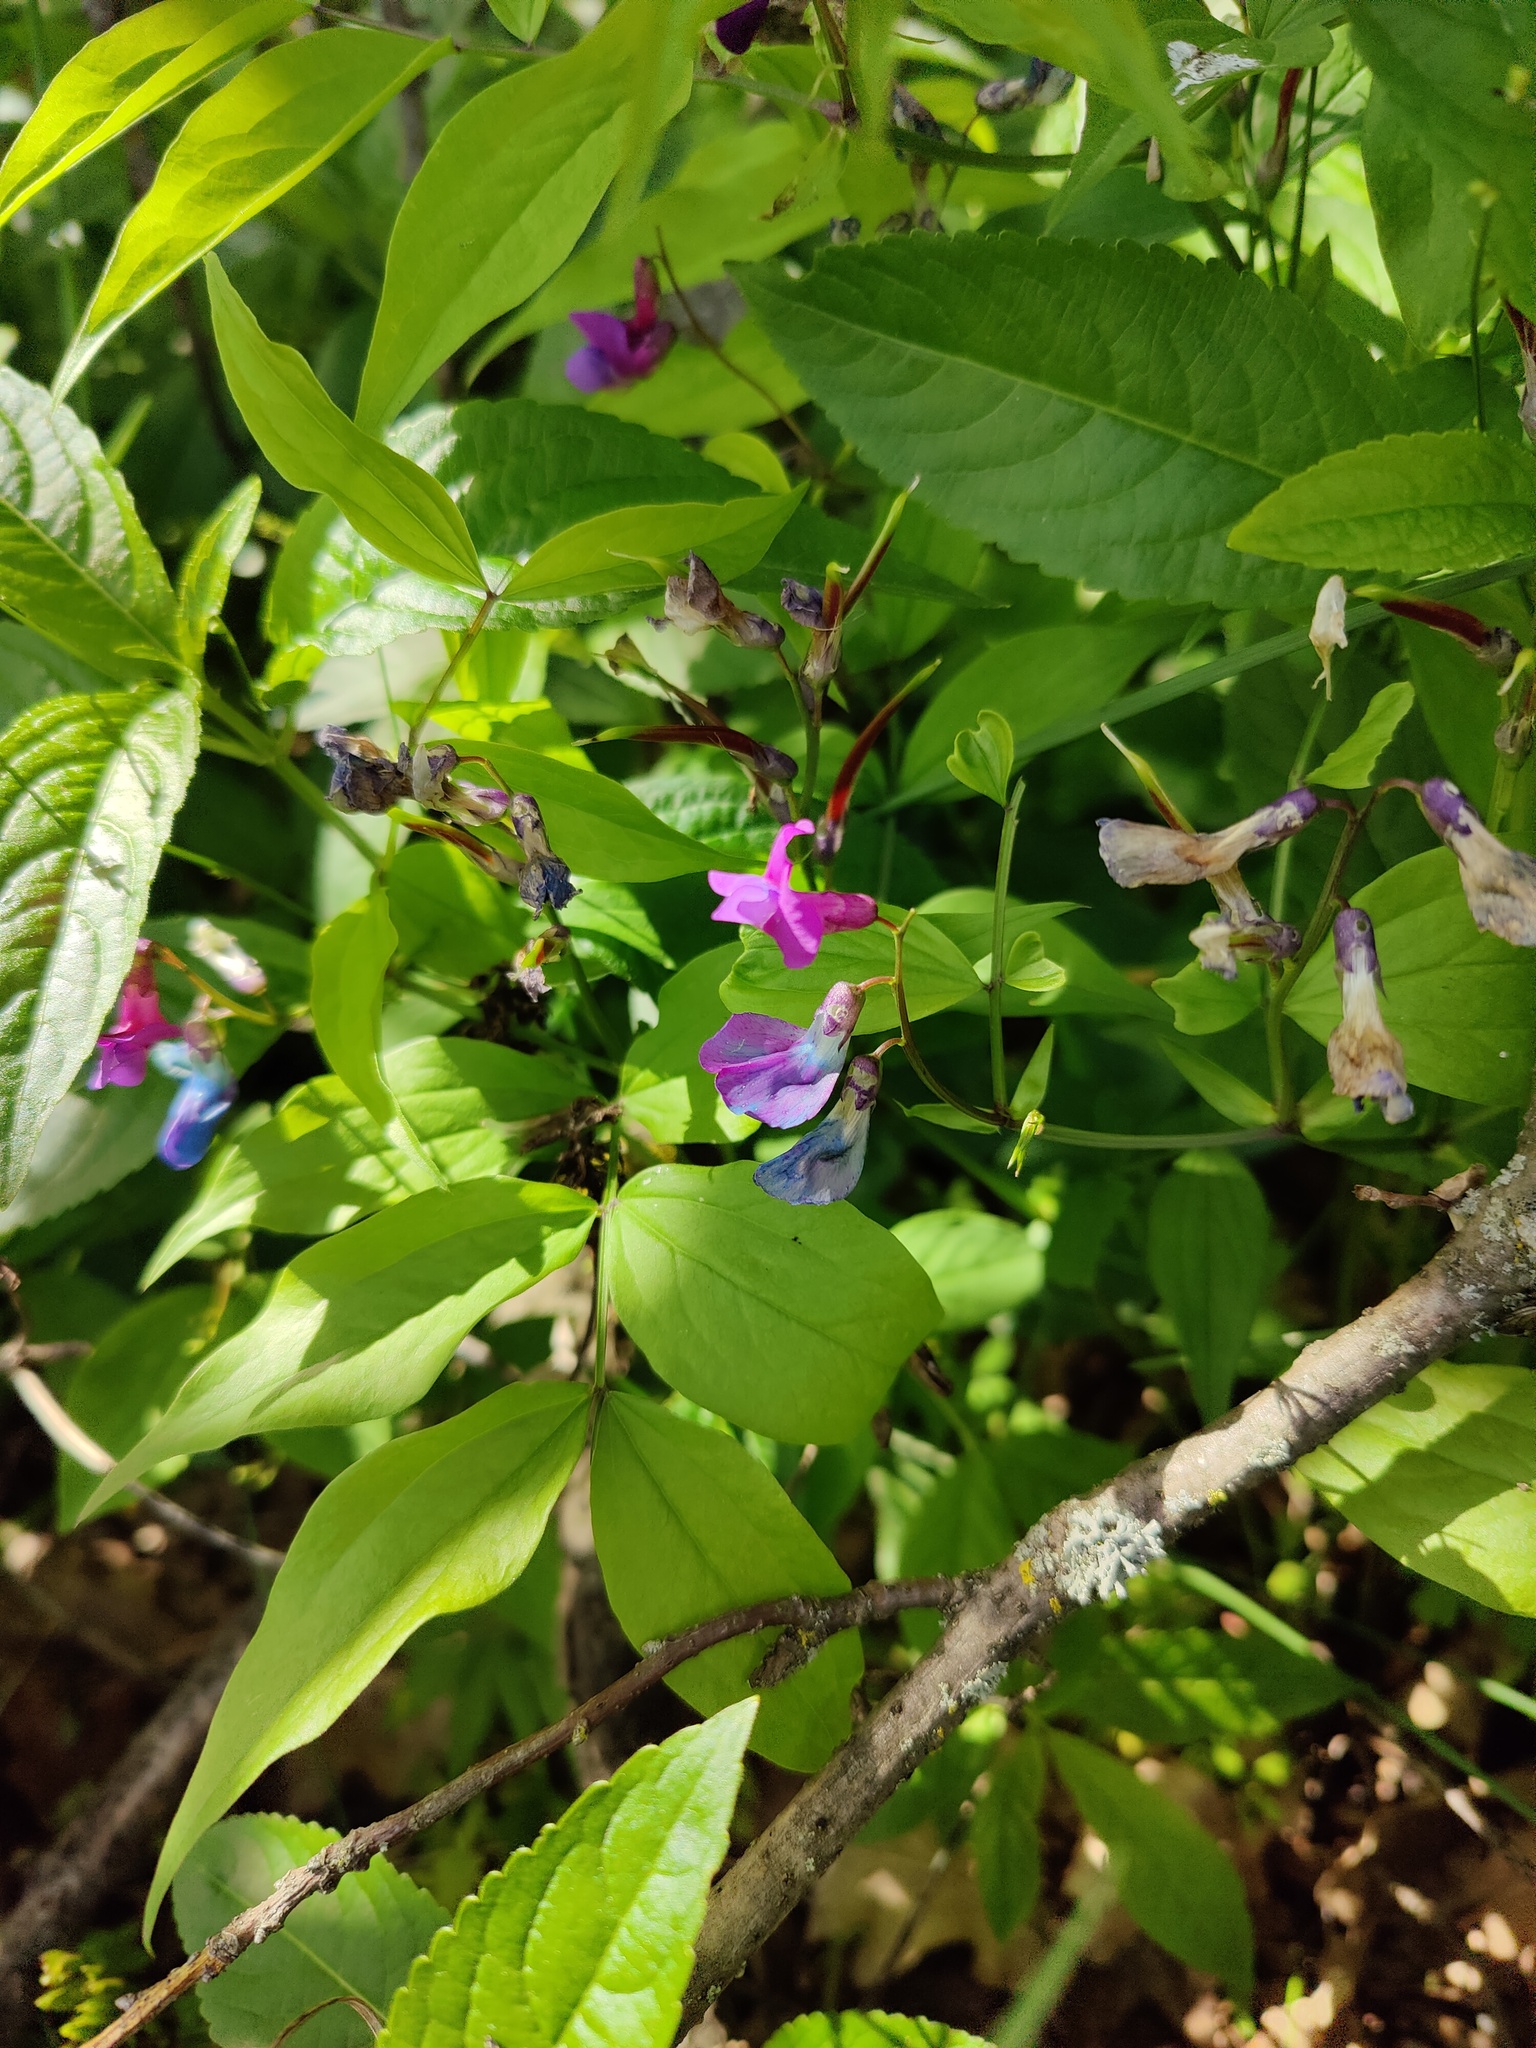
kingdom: Plantae
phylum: Tracheophyta
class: Magnoliopsida
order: Fabales
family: Fabaceae
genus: Lathyrus
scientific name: Lathyrus vernus
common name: Spring pea
